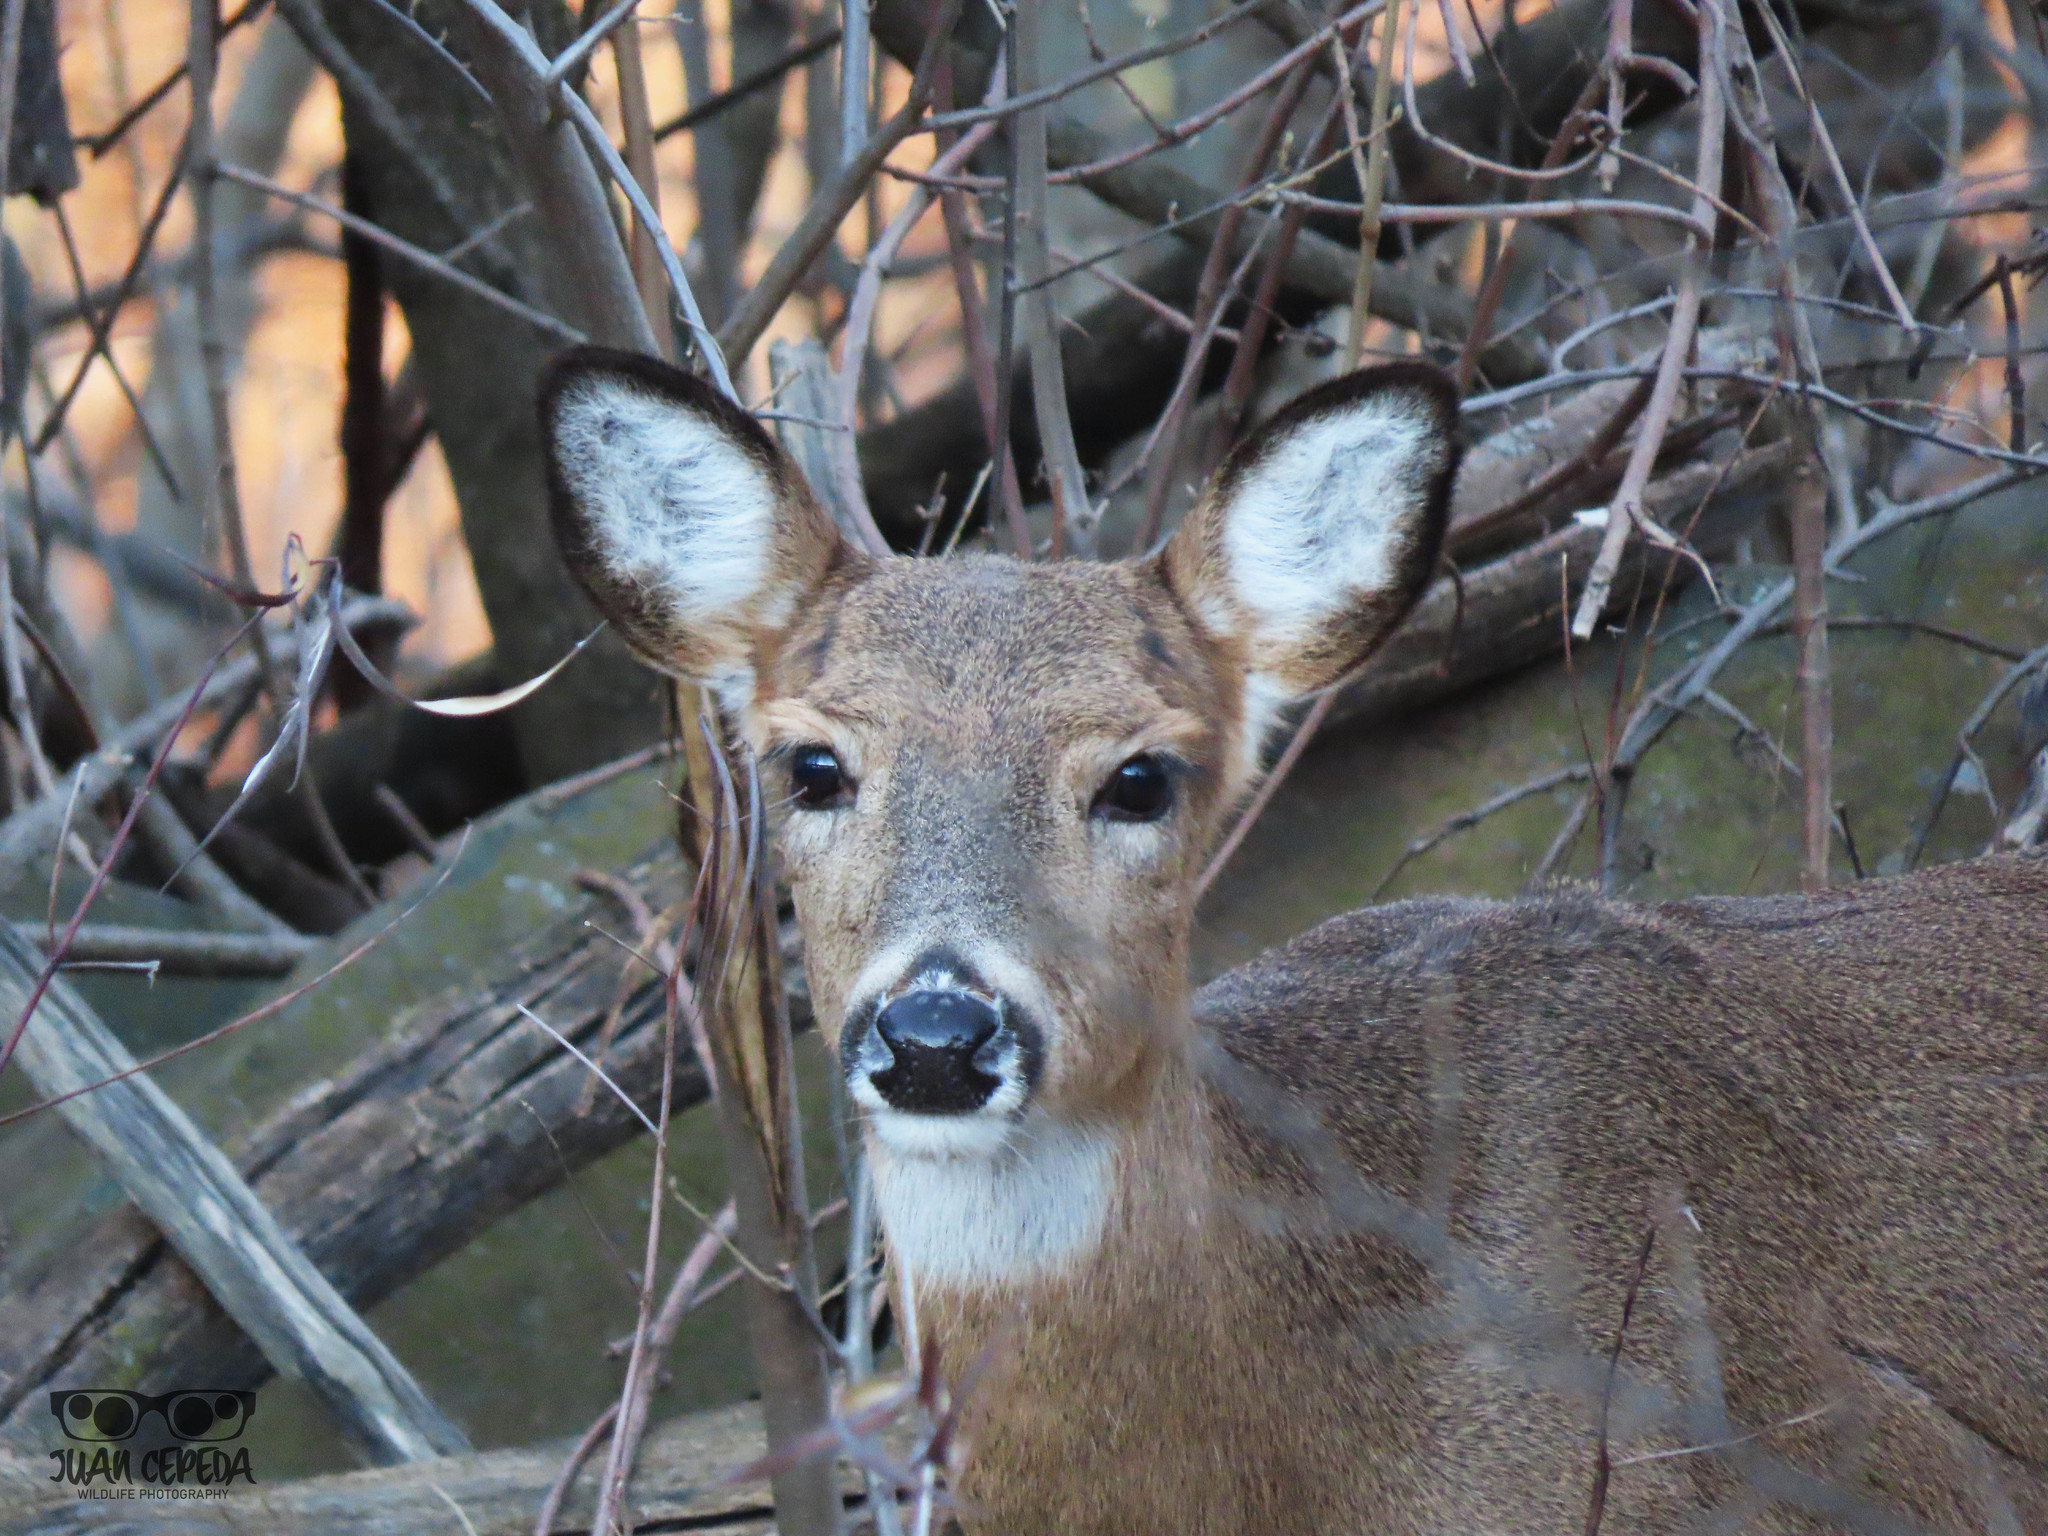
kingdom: Animalia
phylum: Chordata
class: Mammalia
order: Artiodactyla
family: Cervidae
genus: Odocoileus
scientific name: Odocoileus virginianus
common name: White-tailed deer
